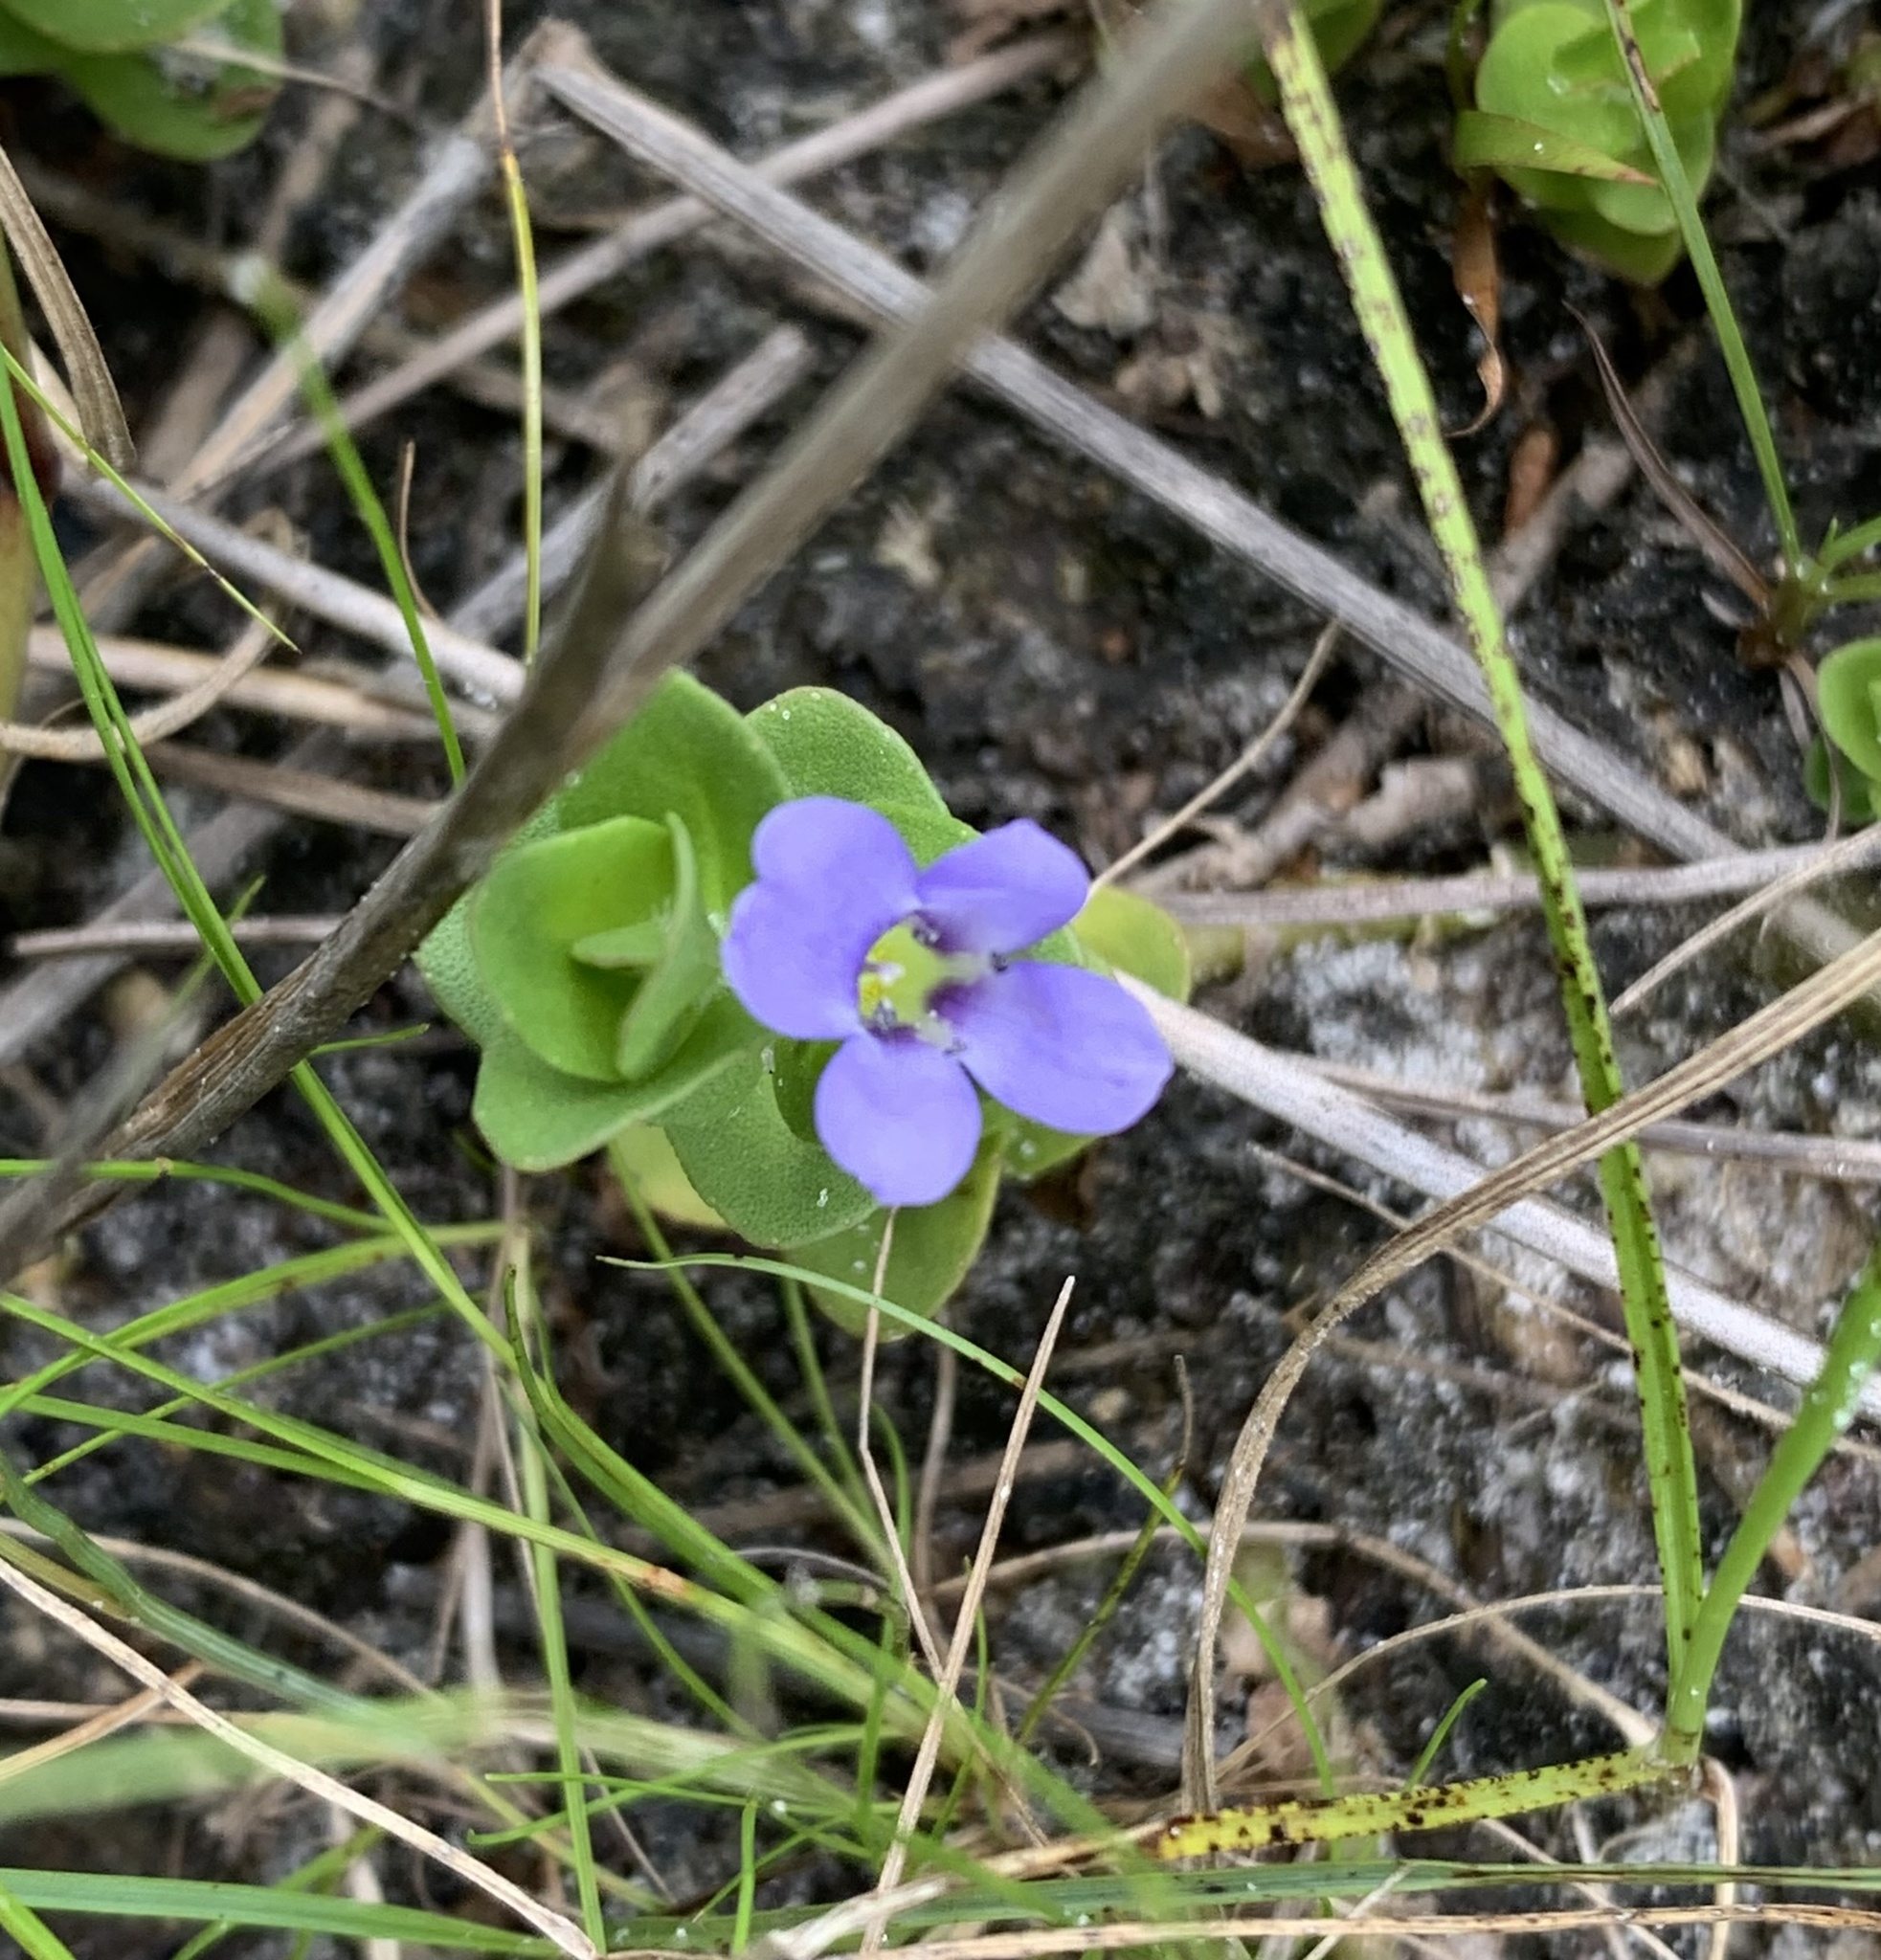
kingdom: Plantae
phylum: Tracheophyta
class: Magnoliopsida
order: Lamiales
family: Plantaginaceae
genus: Bacopa
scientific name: Bacopa caroliniana
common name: Lemon bacopa
